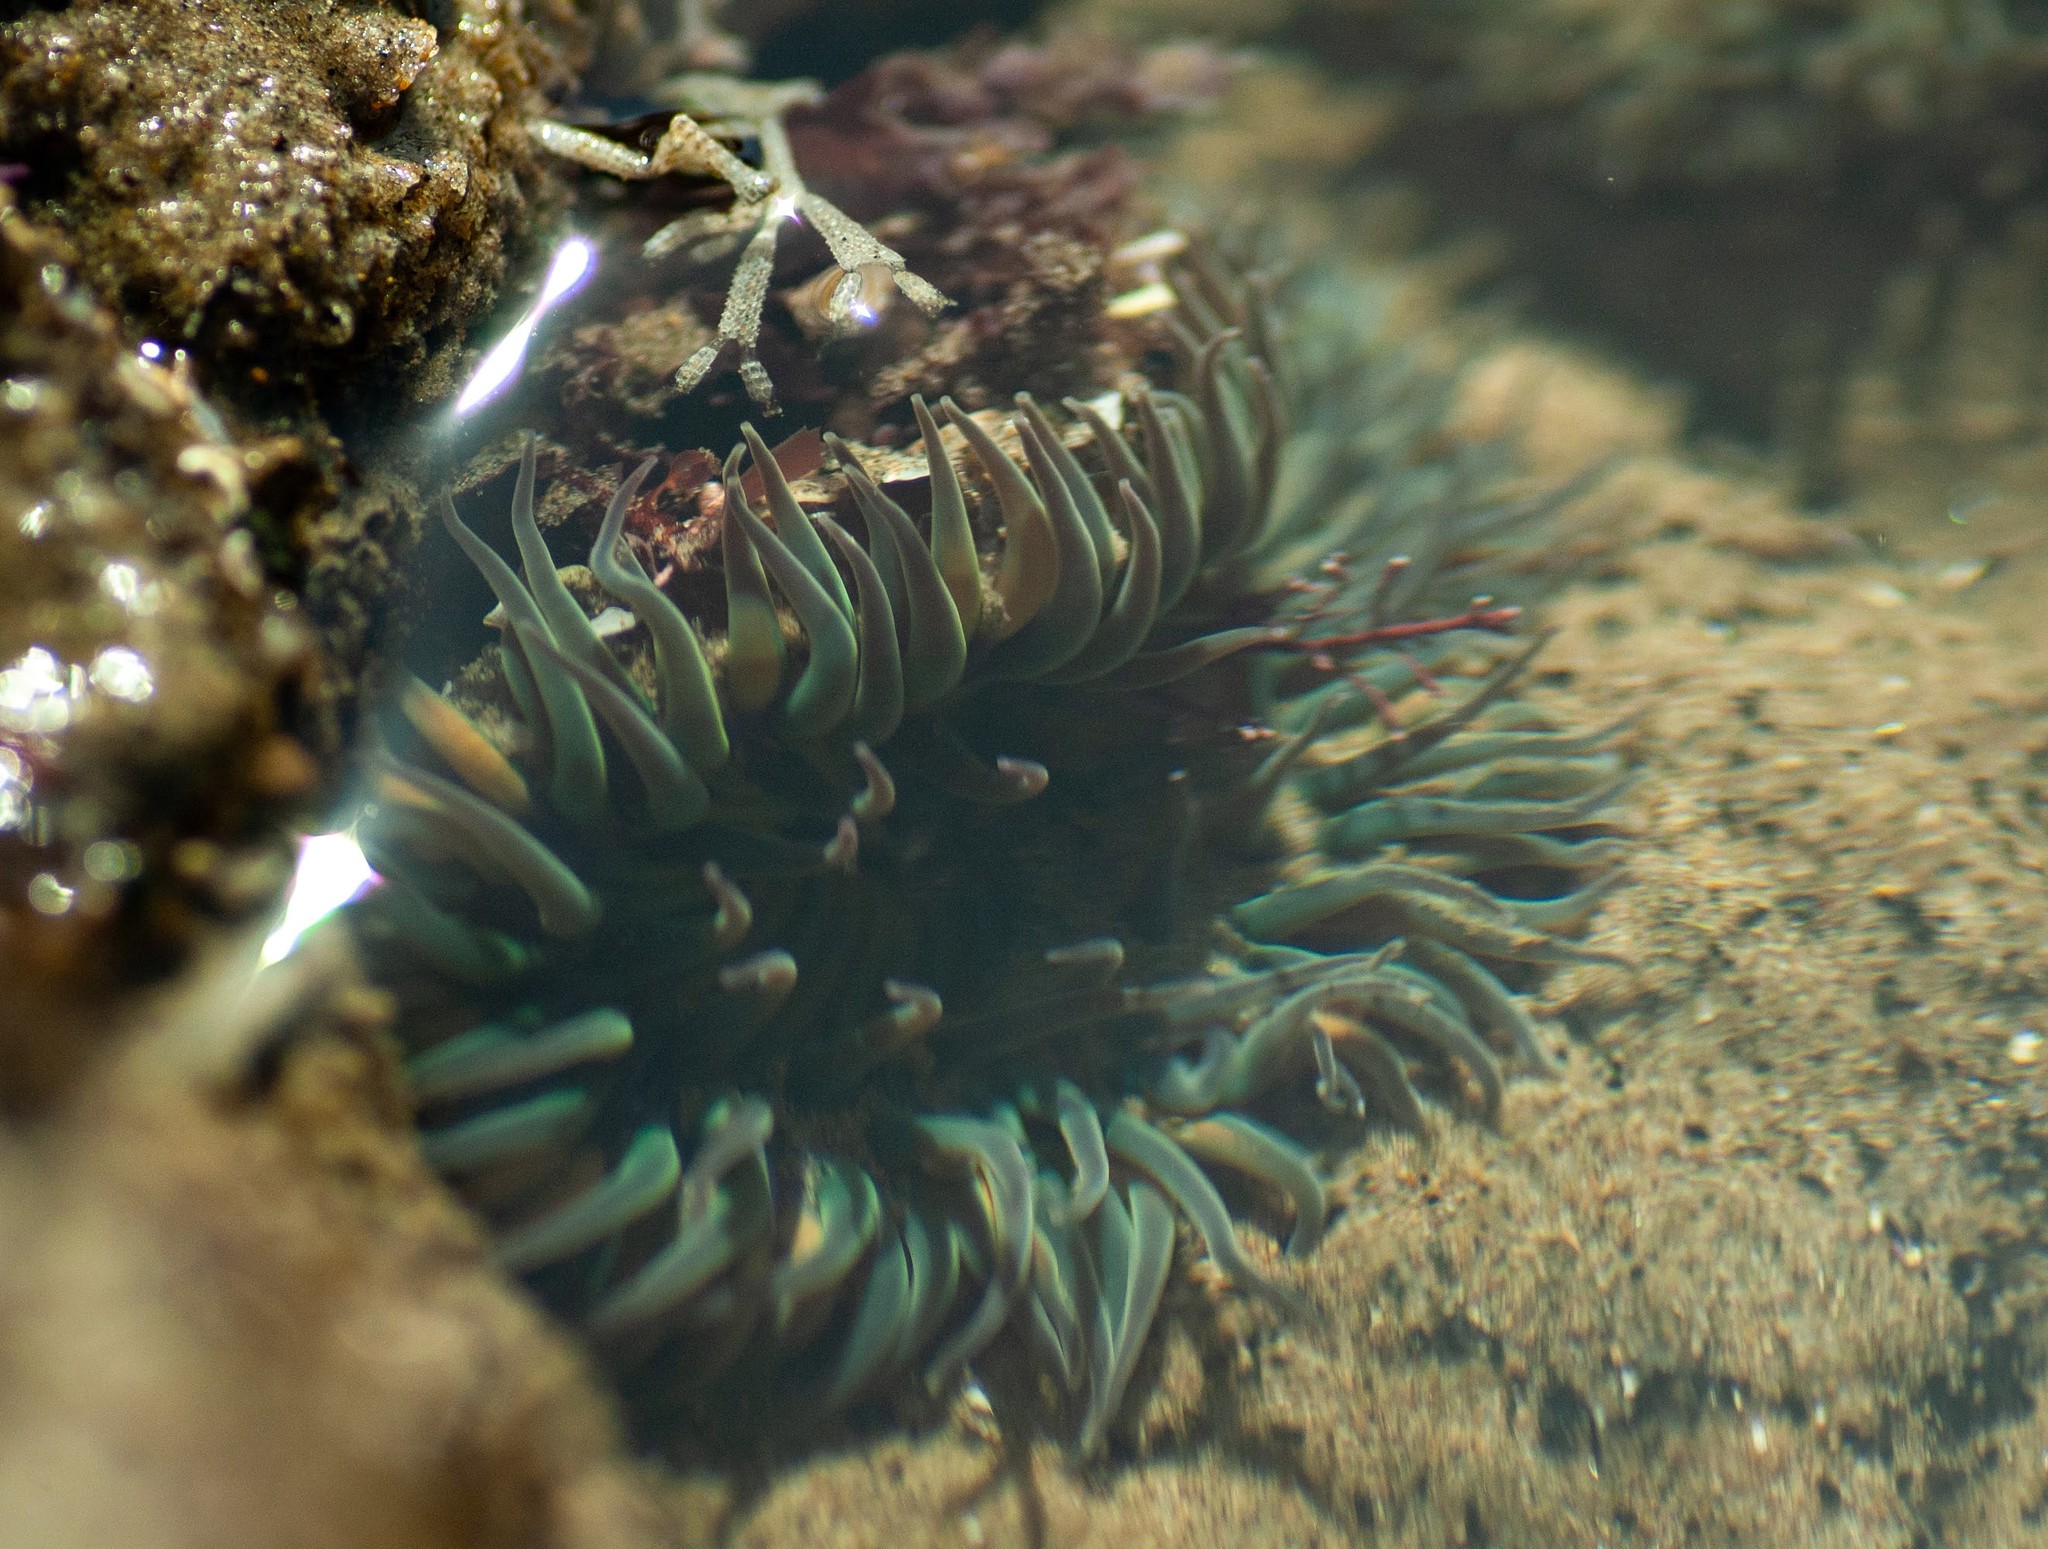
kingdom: Animalia
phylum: Cnidaria
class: Anthozoa
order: Actiniaria
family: Actiniidae
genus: Anthopleura
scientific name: Anthopleura sola
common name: Sun anemone
